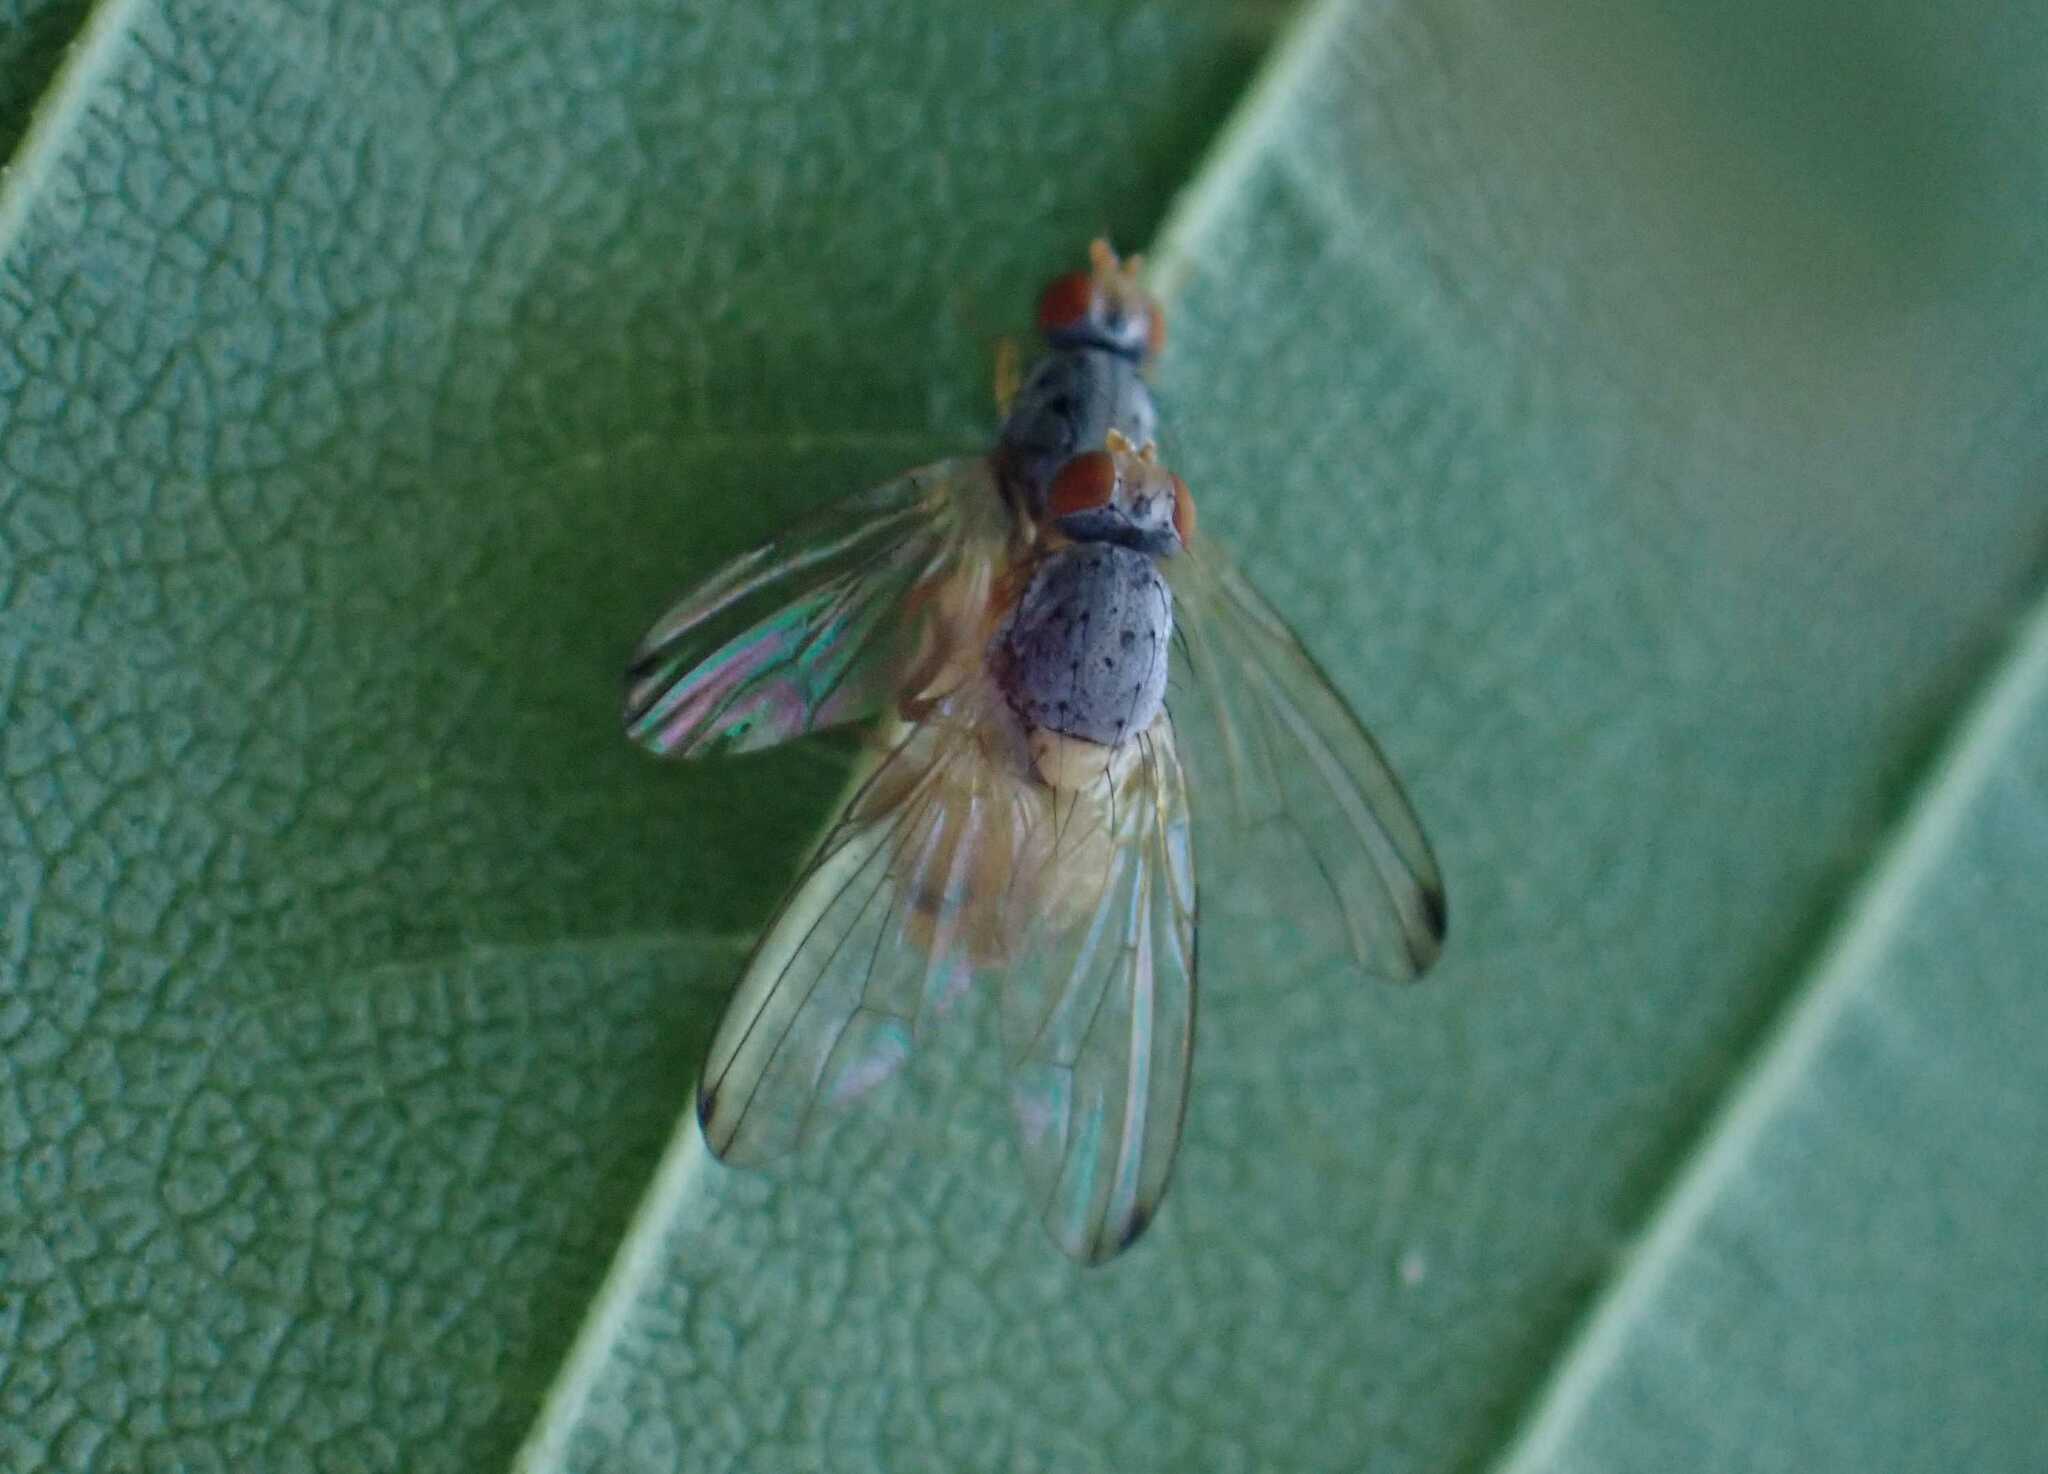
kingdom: Animalia
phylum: Arthropoda
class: Insecta
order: Diptera
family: Pallopteridae
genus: Palloptera
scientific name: Palloptera
